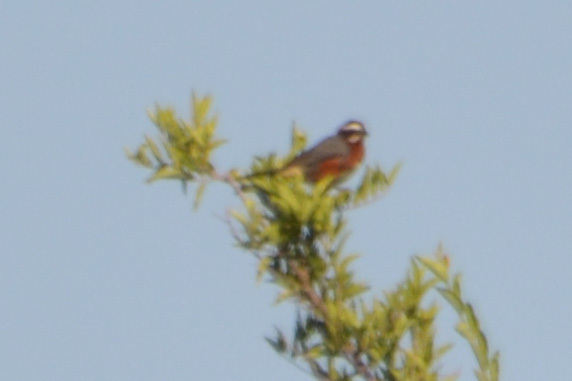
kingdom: Animalia
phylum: Chordata
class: Aves
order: Passeriformes
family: Thraupidae
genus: Poospiza
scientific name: Poospiza whitii
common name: Black-and-chestnut warbling finch
